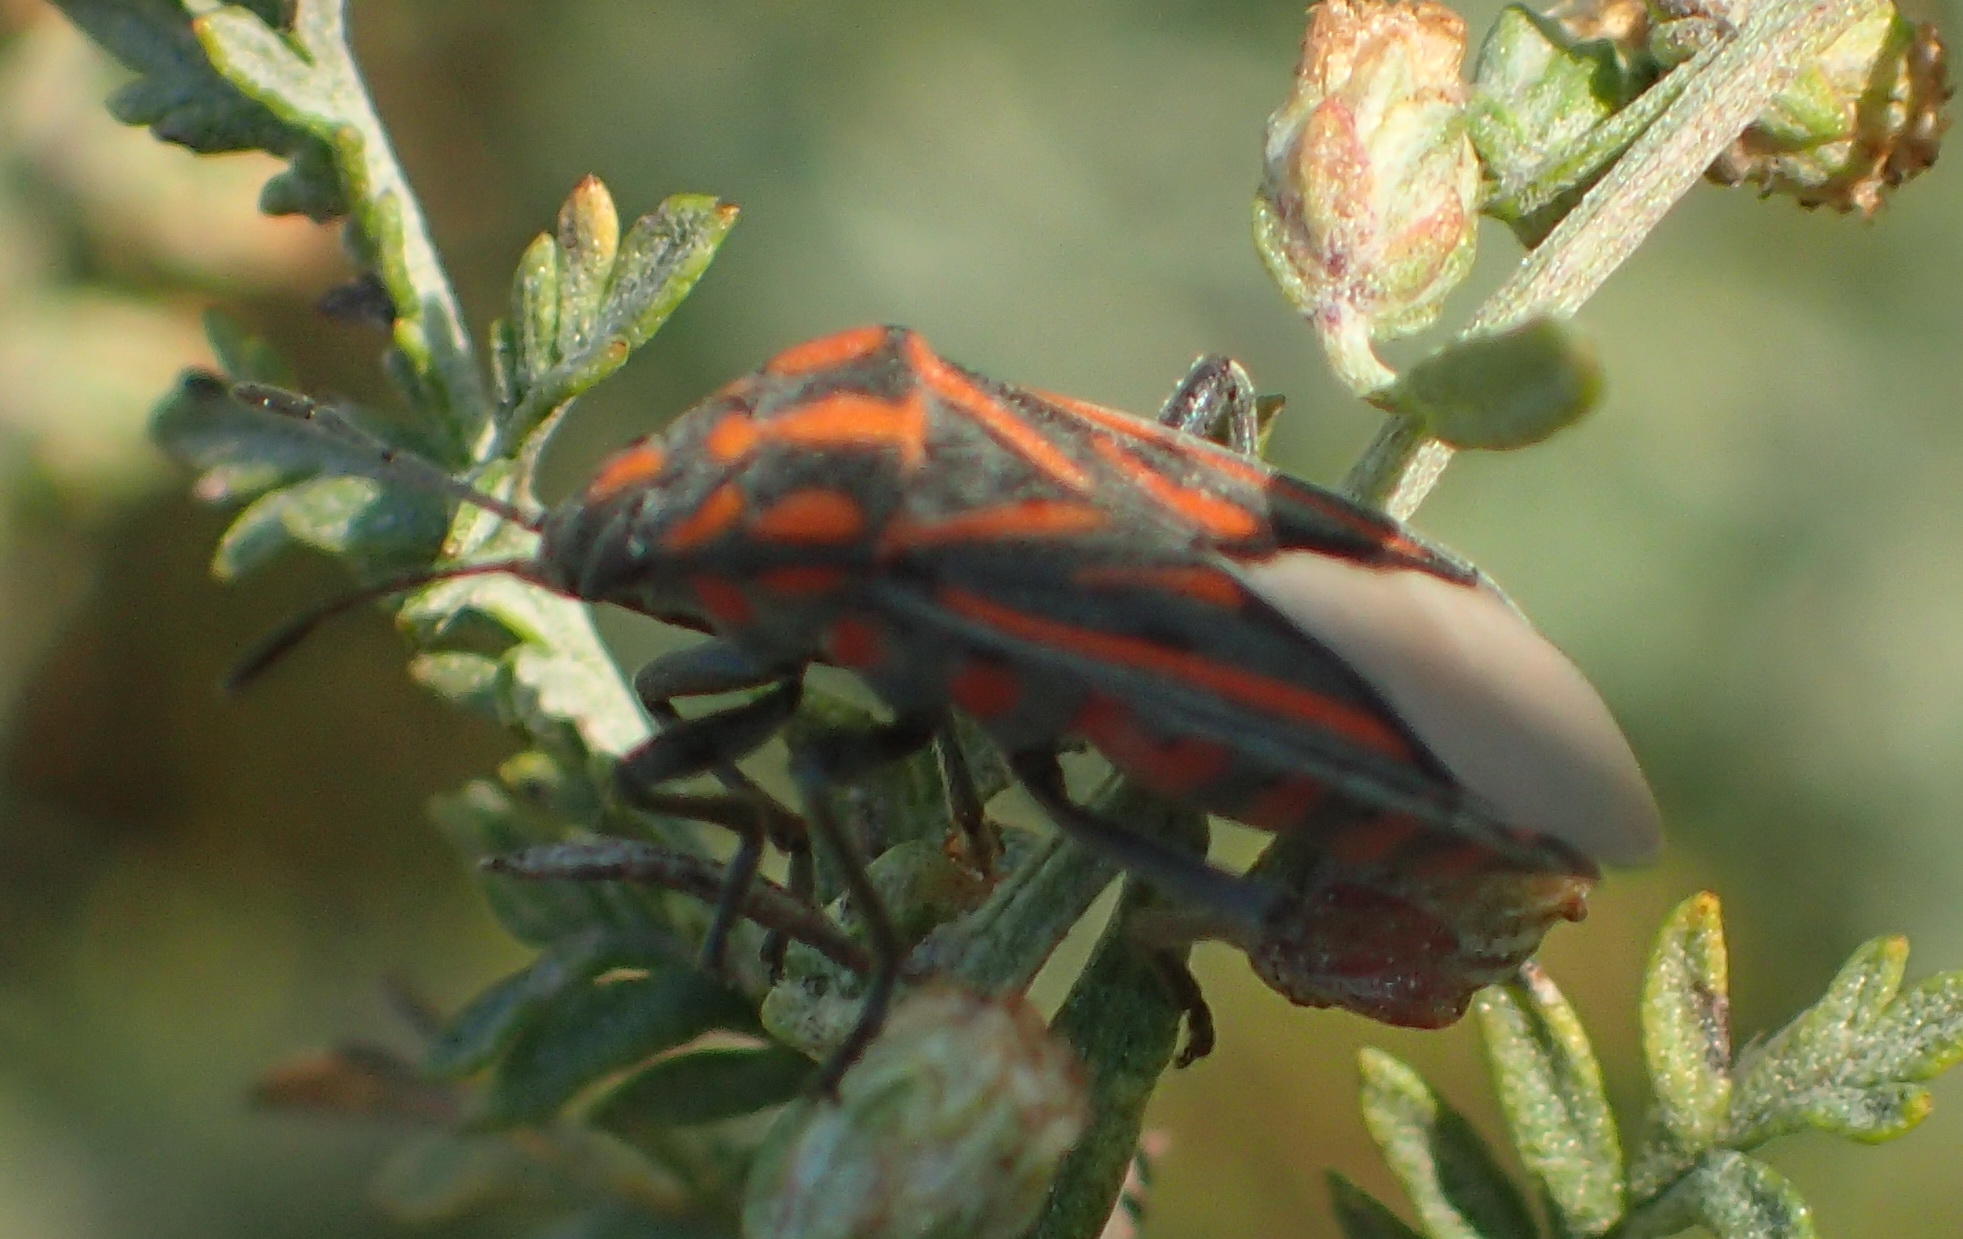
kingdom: Animalia
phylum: Arthropoda
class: Insecta
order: Hemiptera
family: Lygaeidae
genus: Spilostethus
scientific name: Spilostethus lemniscatus
